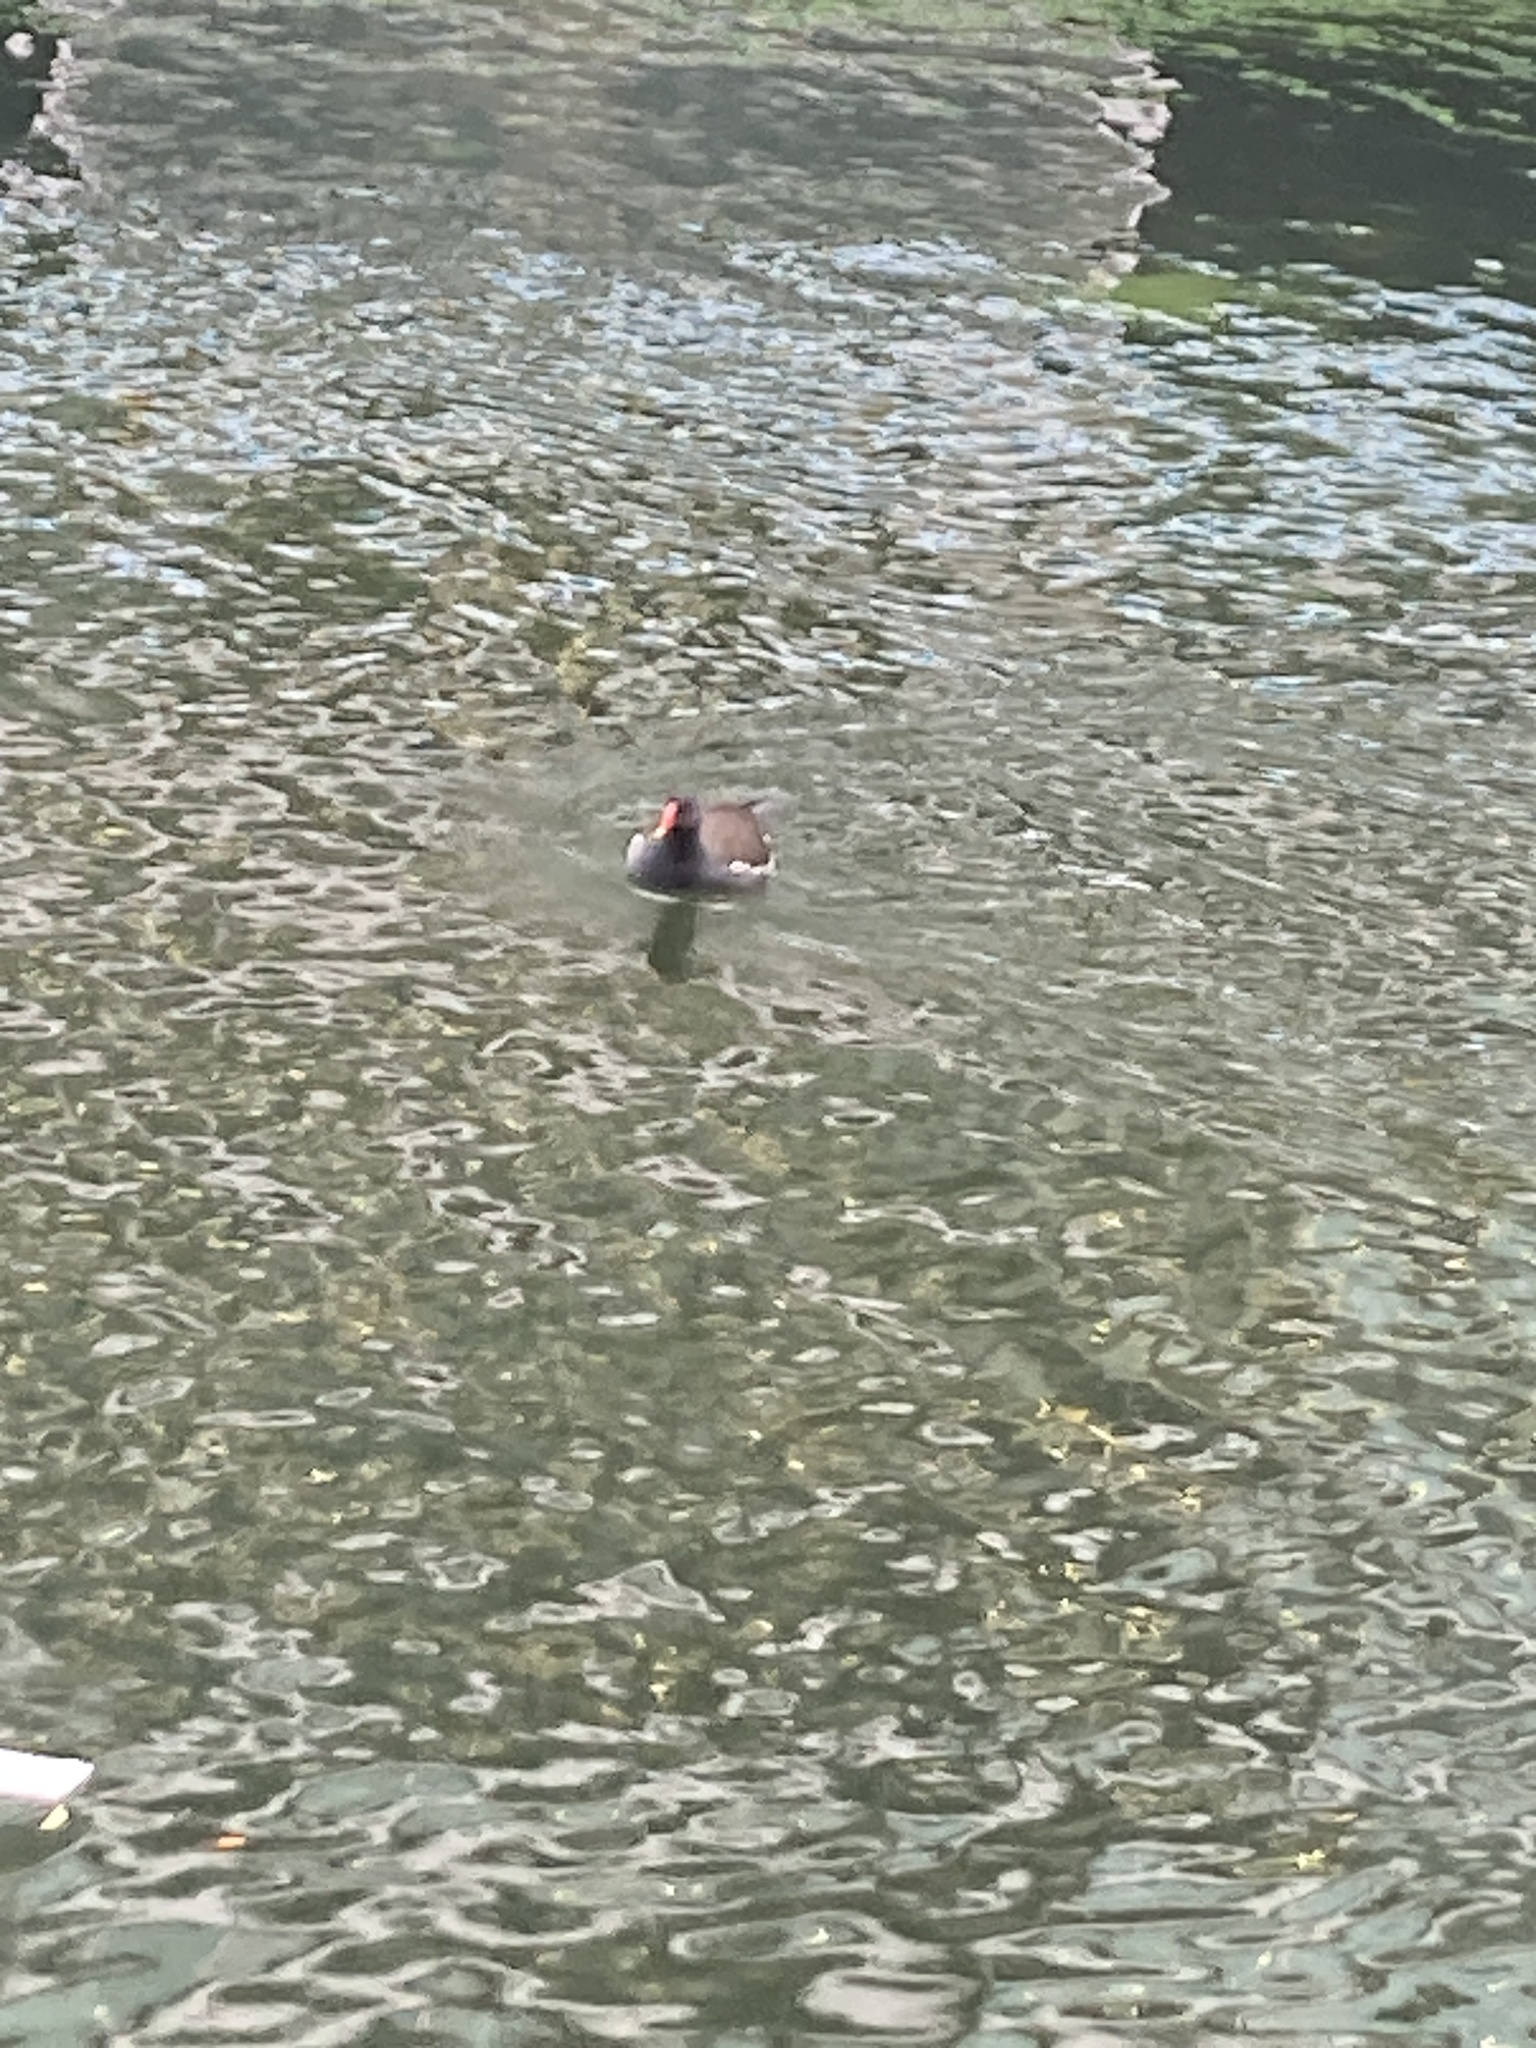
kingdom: Animalia
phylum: Chordata
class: Aves
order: Gruiformes
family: Rallidae
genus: Gallinula
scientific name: Gallinula chloropus
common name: Common moorhen
